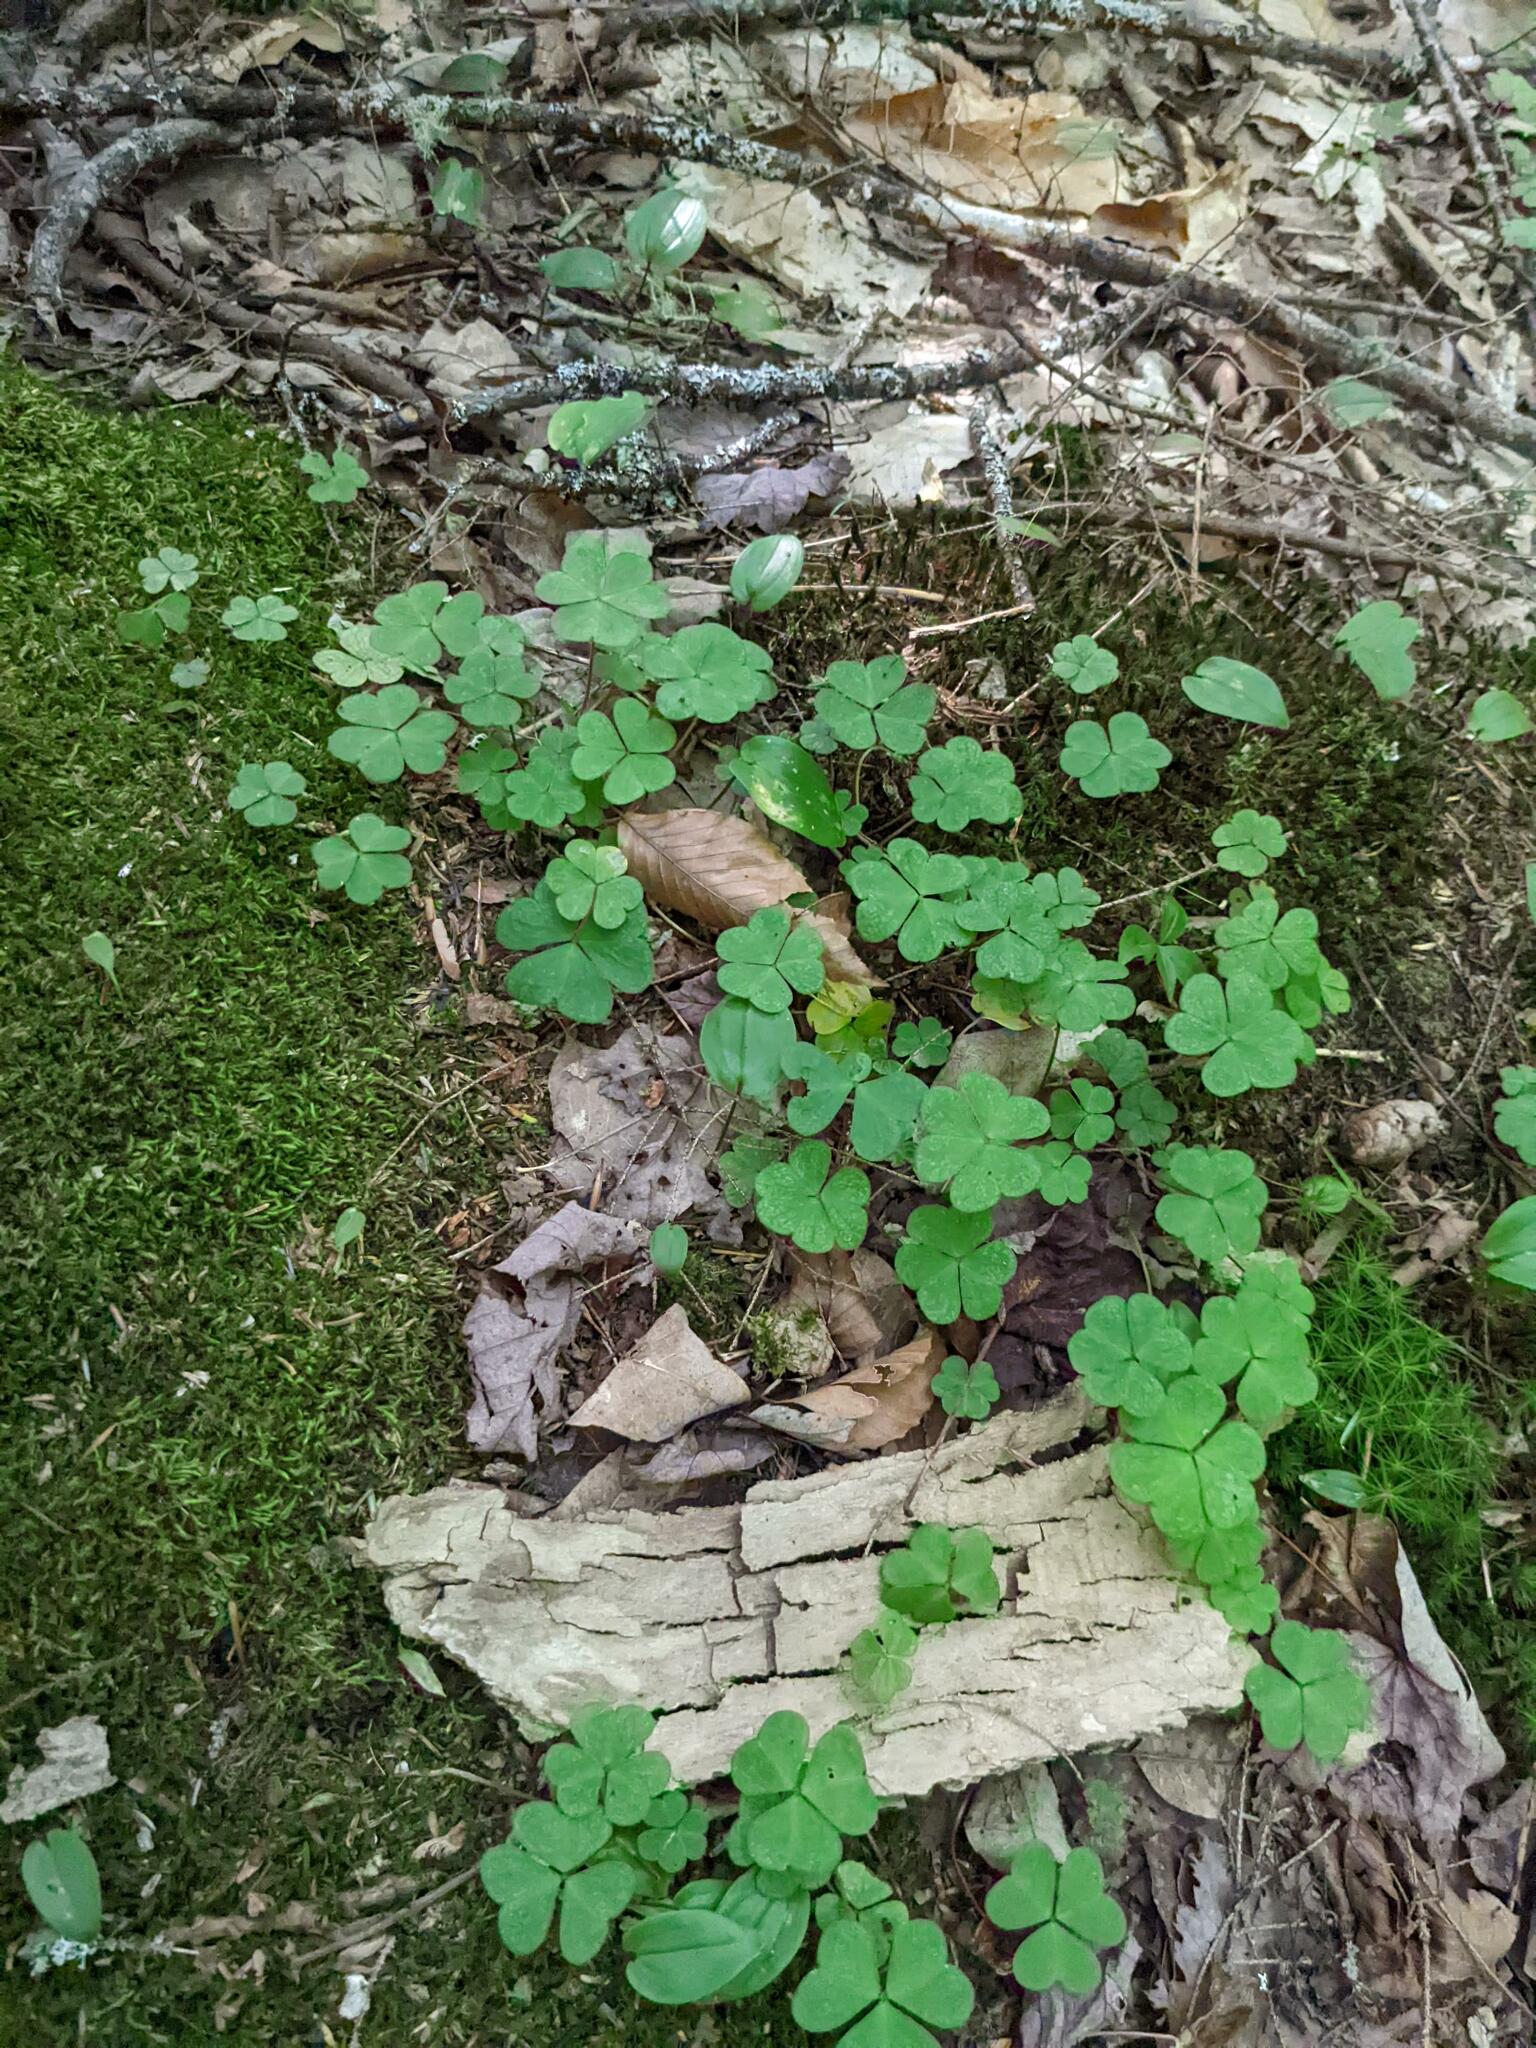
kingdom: Plantae
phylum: Tracheophyta
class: Magnoliopsida
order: Oxalidales
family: Oxalidaceae
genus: Oxalis
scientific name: Oxalis montana
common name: American wood-sorrel
